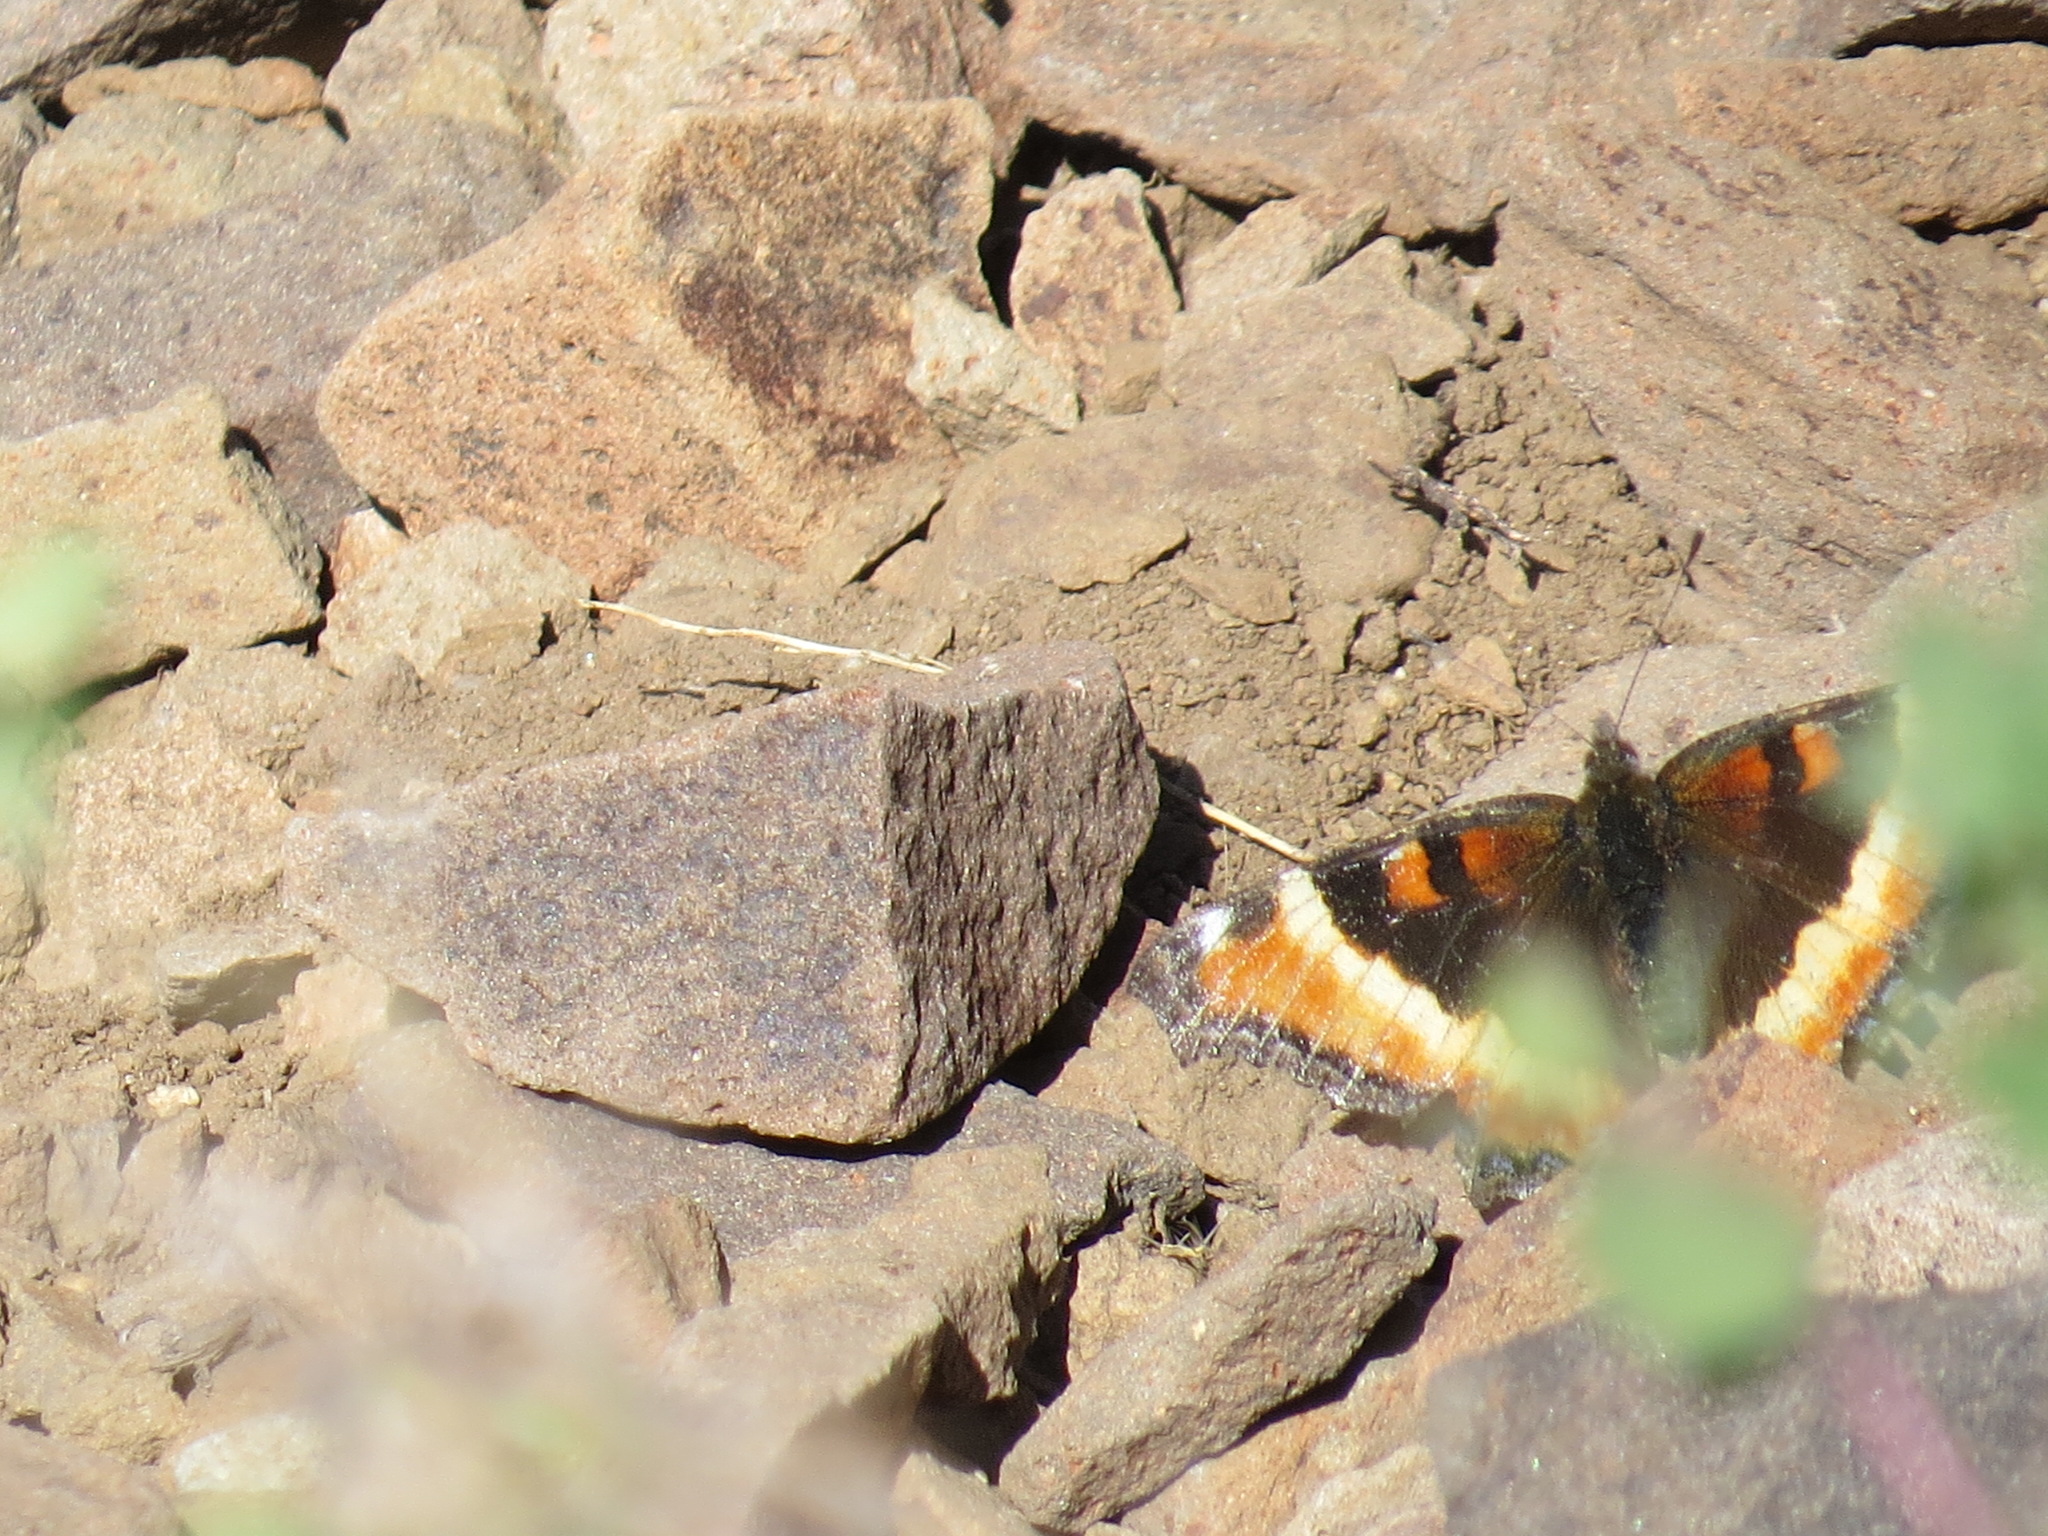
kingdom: Animalia
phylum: Arthropoda
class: Insecta
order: Lepidoptera
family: Nymphalidae
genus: Aglais
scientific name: Aglais milberti
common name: Milbert's tortoiseshell
